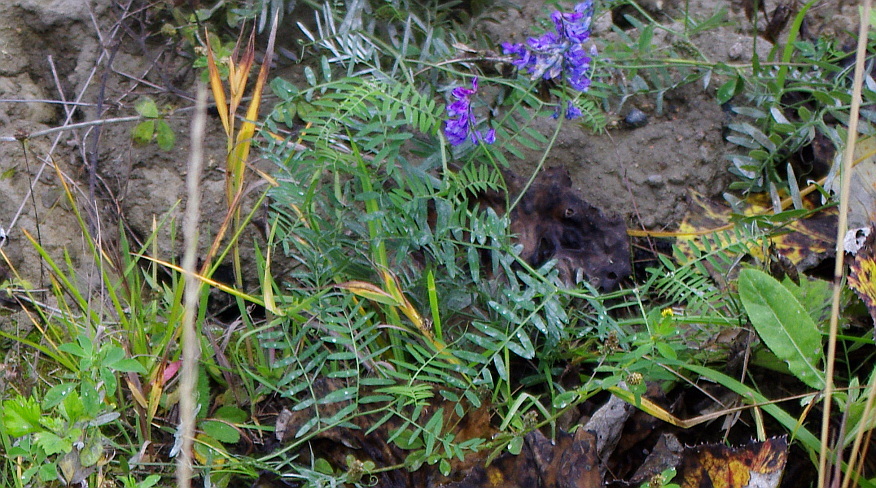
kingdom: Plantae
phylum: Tracheophyta
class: Magnoliopsida
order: Fabales
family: Fabaceae
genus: Vicia
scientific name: Vicia cracca
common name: Bird vetch
